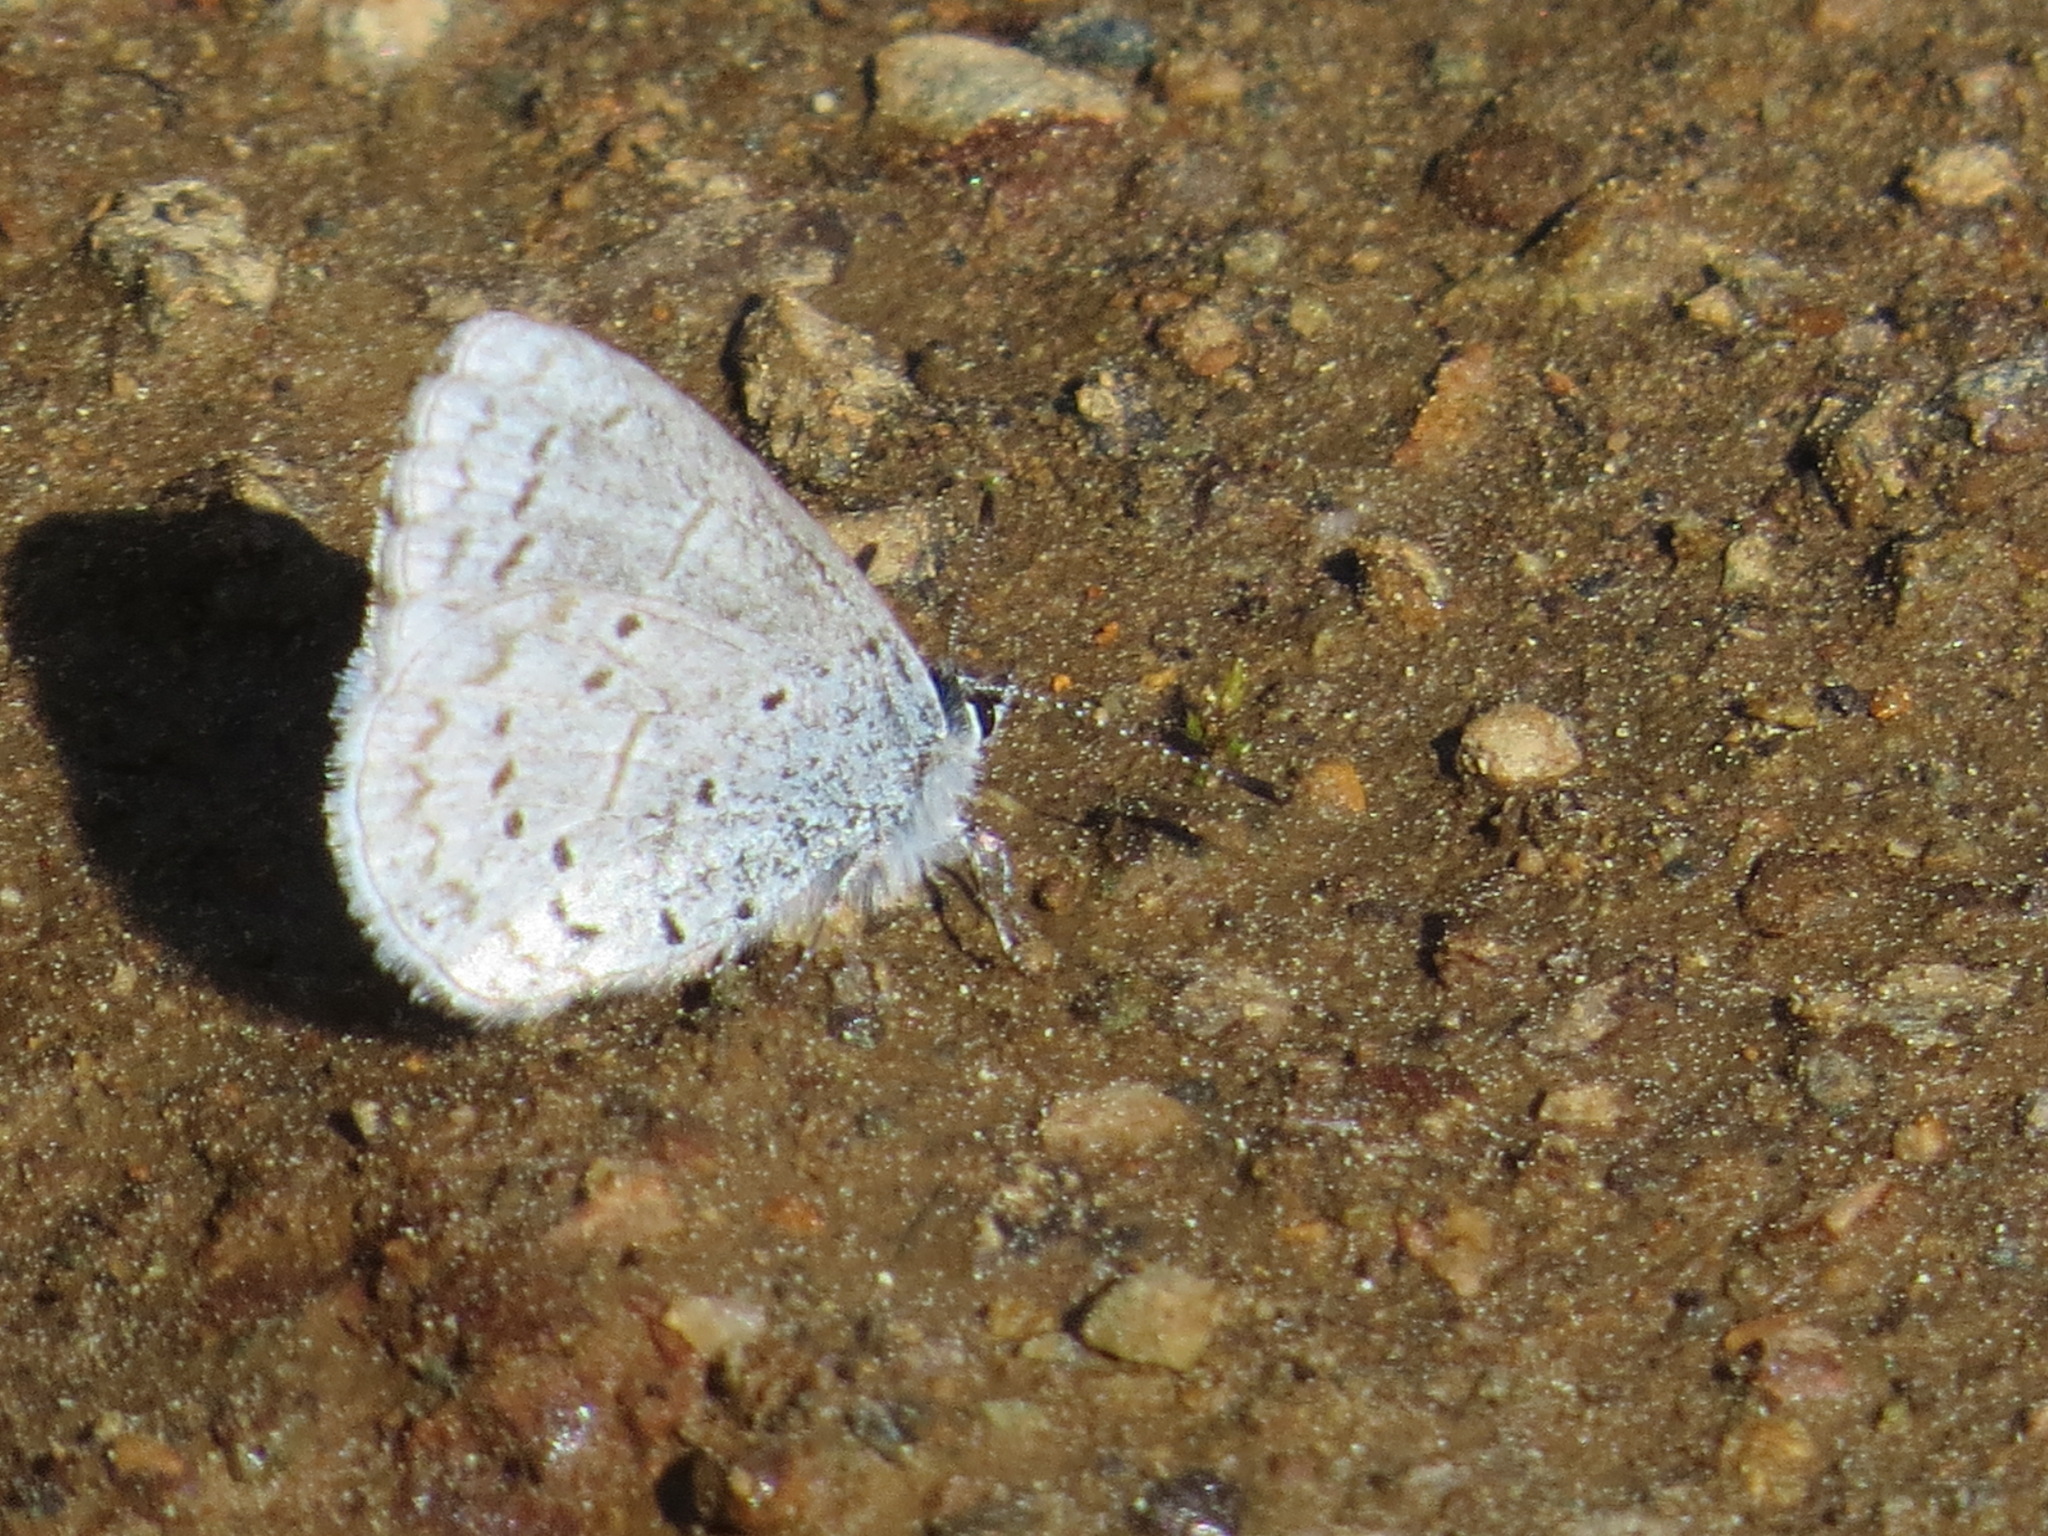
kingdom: Animalia
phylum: Arthropoda
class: Insecta
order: Lepidoptera
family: Lycaenidae
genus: Celastrina
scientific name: Celastrina ladon
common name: Spring azure
